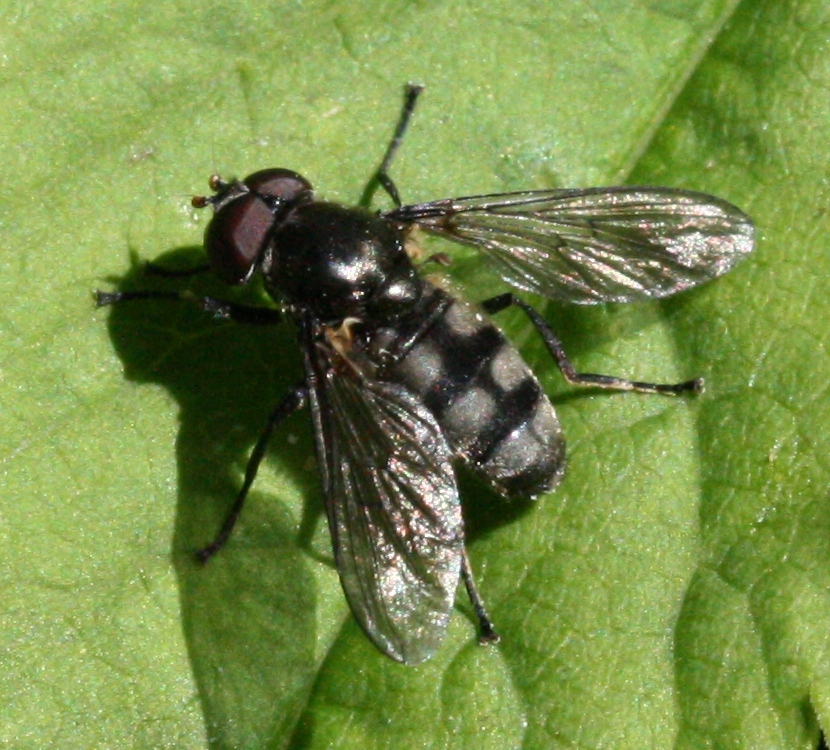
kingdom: Animalia
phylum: Arthropoda
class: Insecta
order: Diptera
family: Syrphidae
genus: Portevinia
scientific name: Portevinia maculata
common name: Ramson's hoverfly
